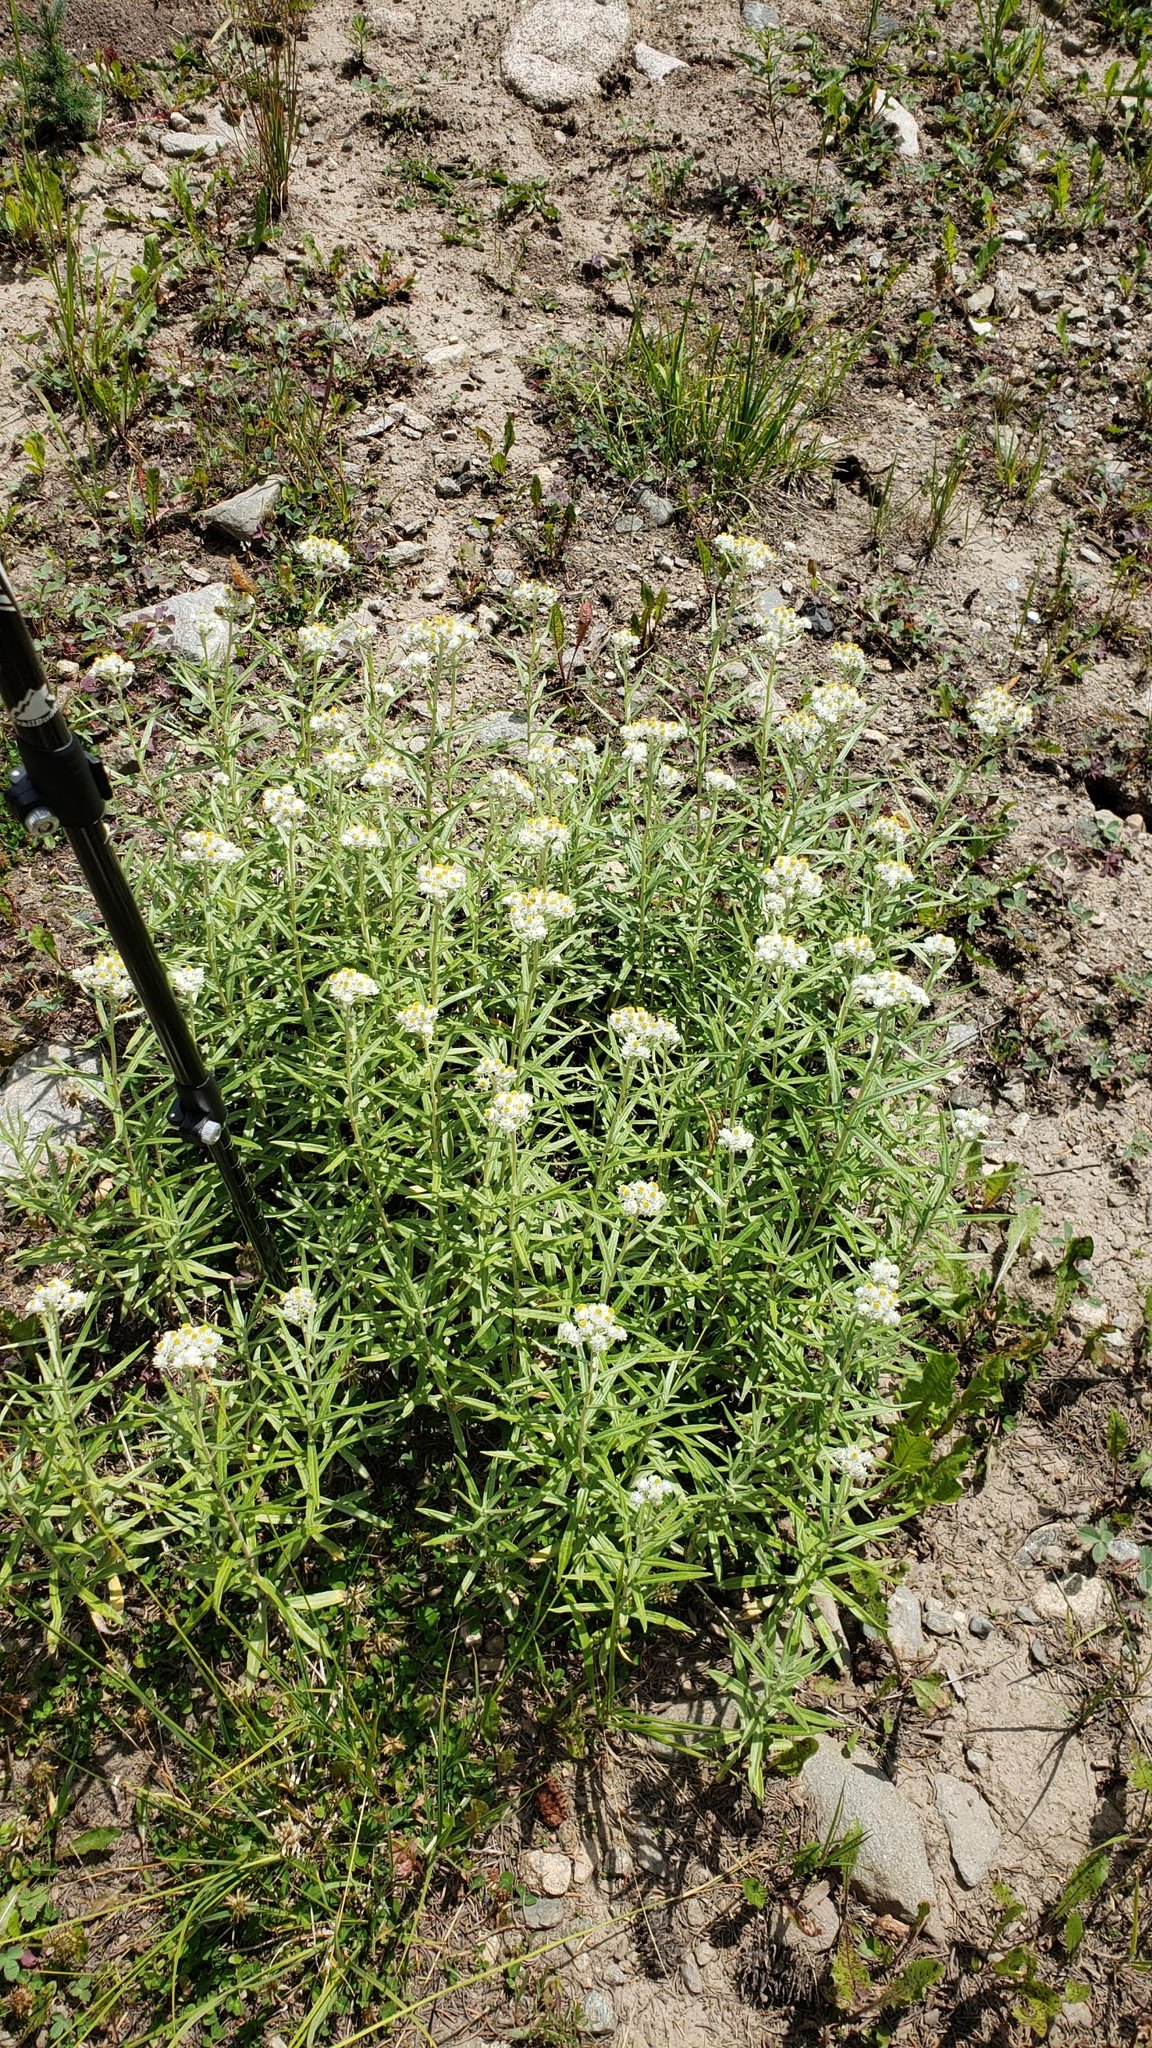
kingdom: Plantae
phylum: Tracheophyta
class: Magnoliopsida
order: Asterales
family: Asteraceae
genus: Anaphalis
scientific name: Anaphalis margaritacea
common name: Pearly everlasting
